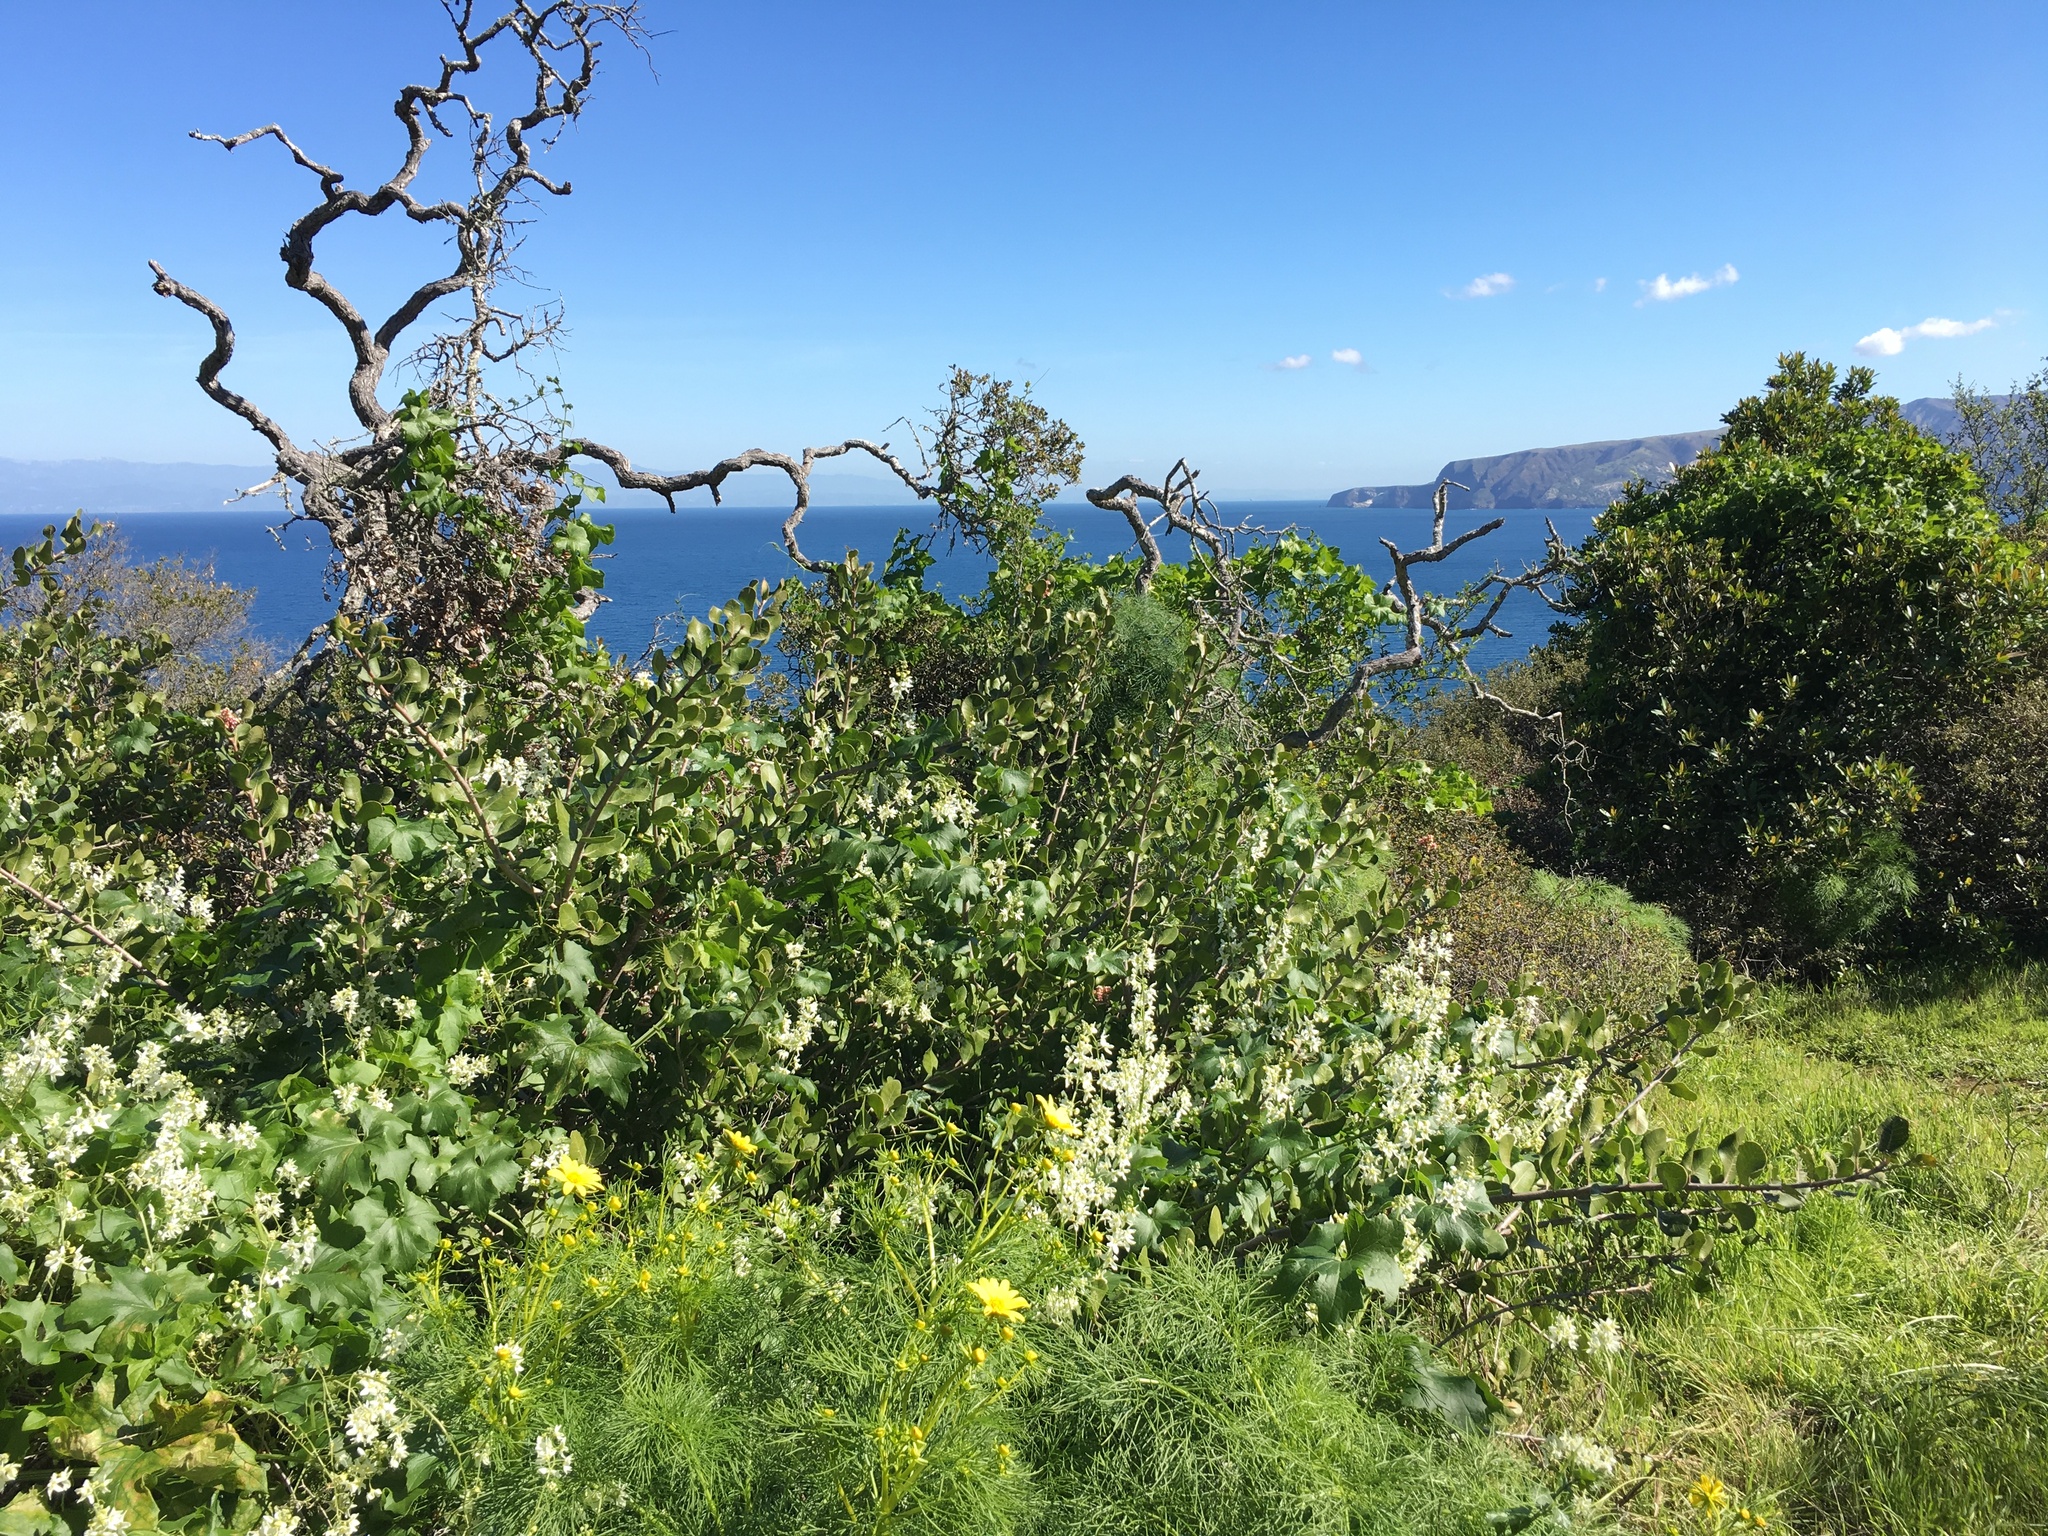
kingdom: Plantae
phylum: Tracheophyta
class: Magnoliopsida
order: Cucurbitales
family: Cucurbitaceae
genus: Marah
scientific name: Marah macrocarpa
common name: Cucamonga manroot
